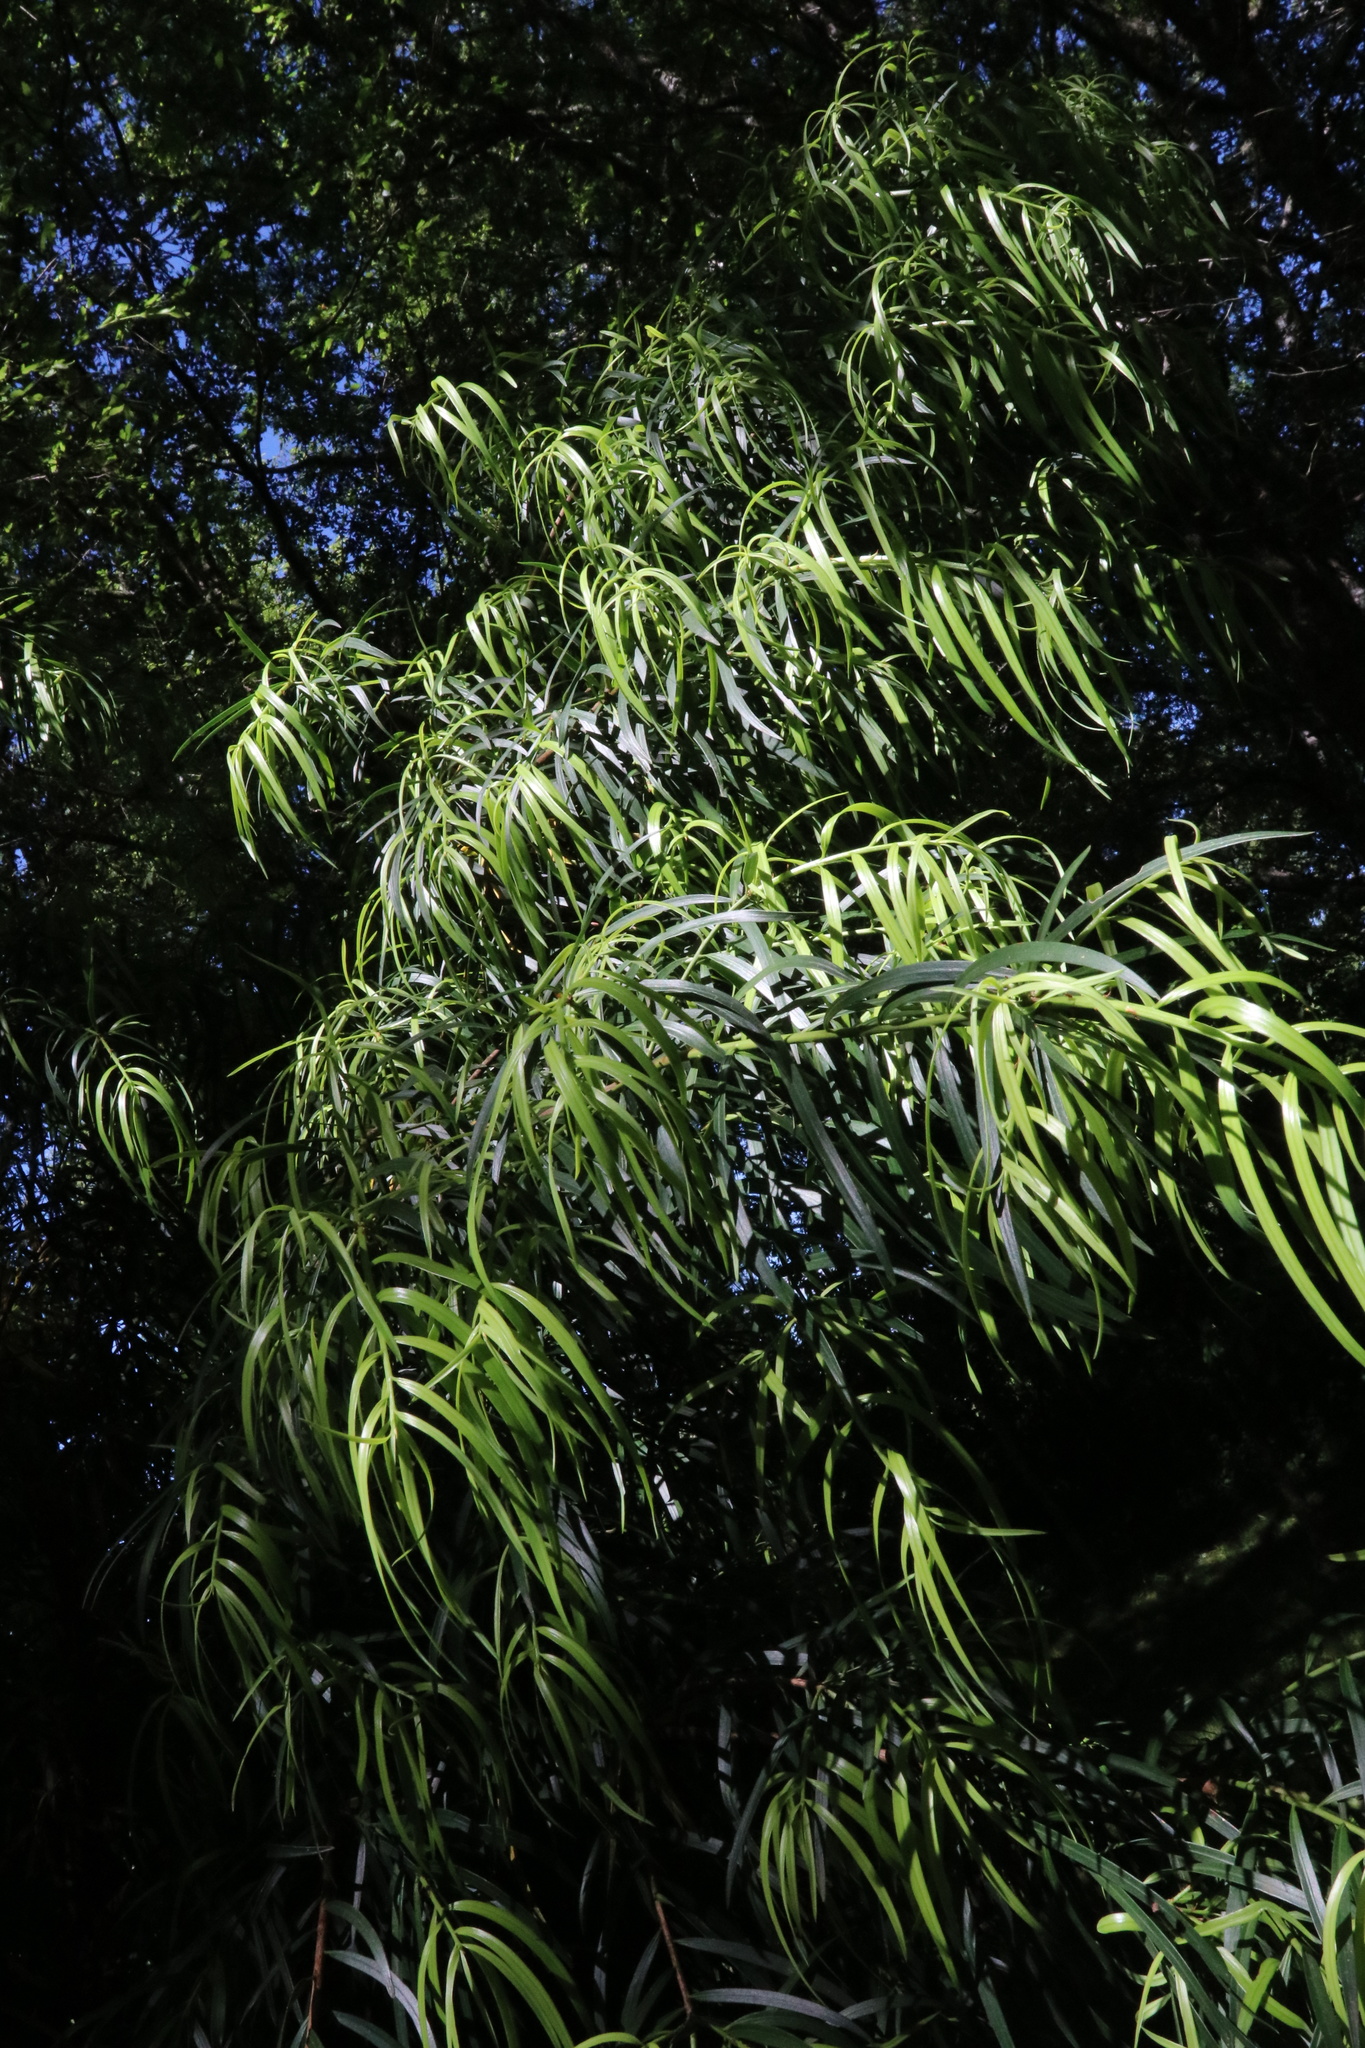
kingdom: Plantae
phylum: Tracheophyta
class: Pinopsida
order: Pinales
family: Podocarpaceae
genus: Podocarpus
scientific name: Podocarpus salignus
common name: Willow-leaf podocarp
